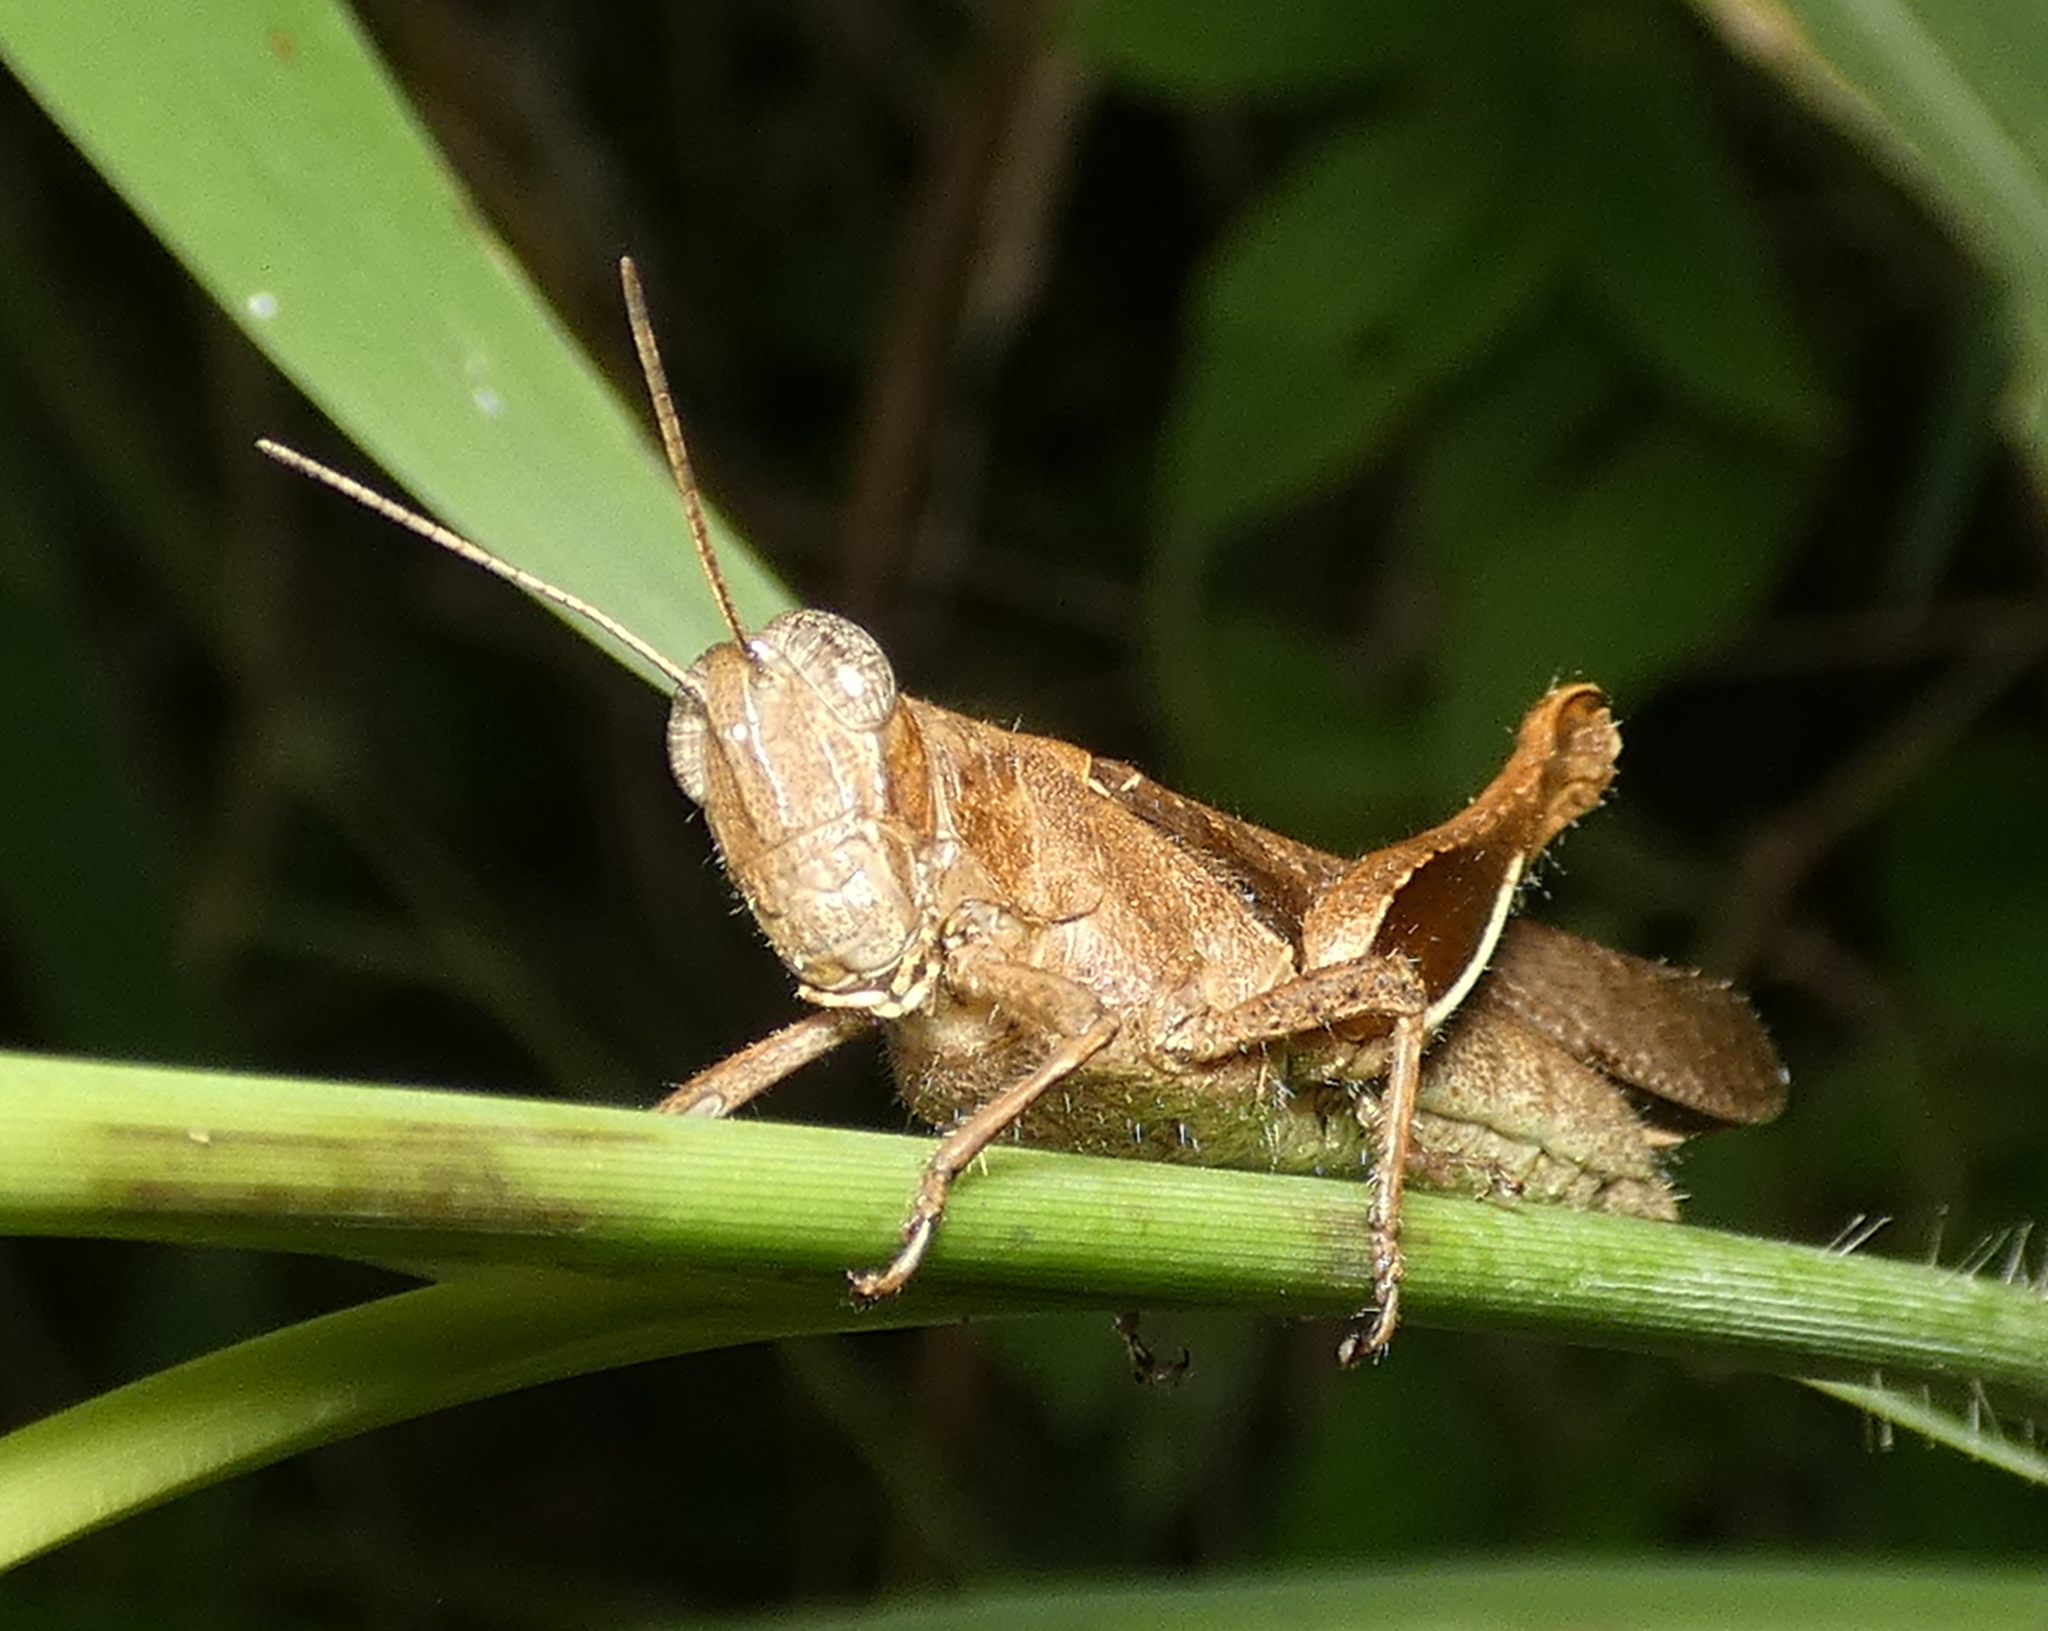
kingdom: Animalia
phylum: Arthropoda
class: Insecta
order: Orthoptera
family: Acrididae
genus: Abracris
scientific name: Abracris flavolineata
